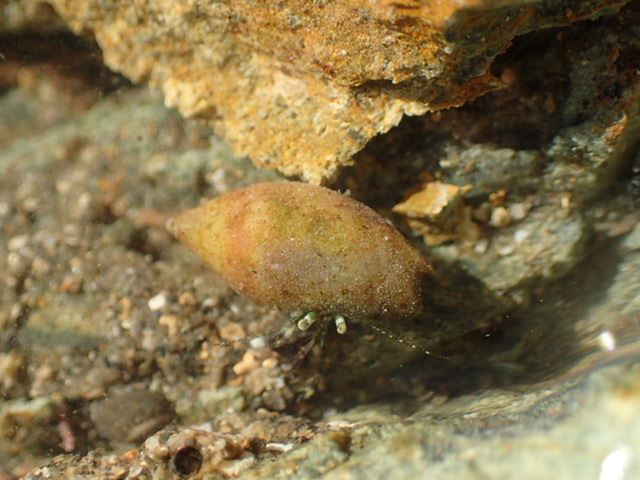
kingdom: Animalia
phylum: Mollusca
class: Gastropoda
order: Neogastropoda
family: Ancillariidae
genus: Amalda
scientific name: Amalda australis
